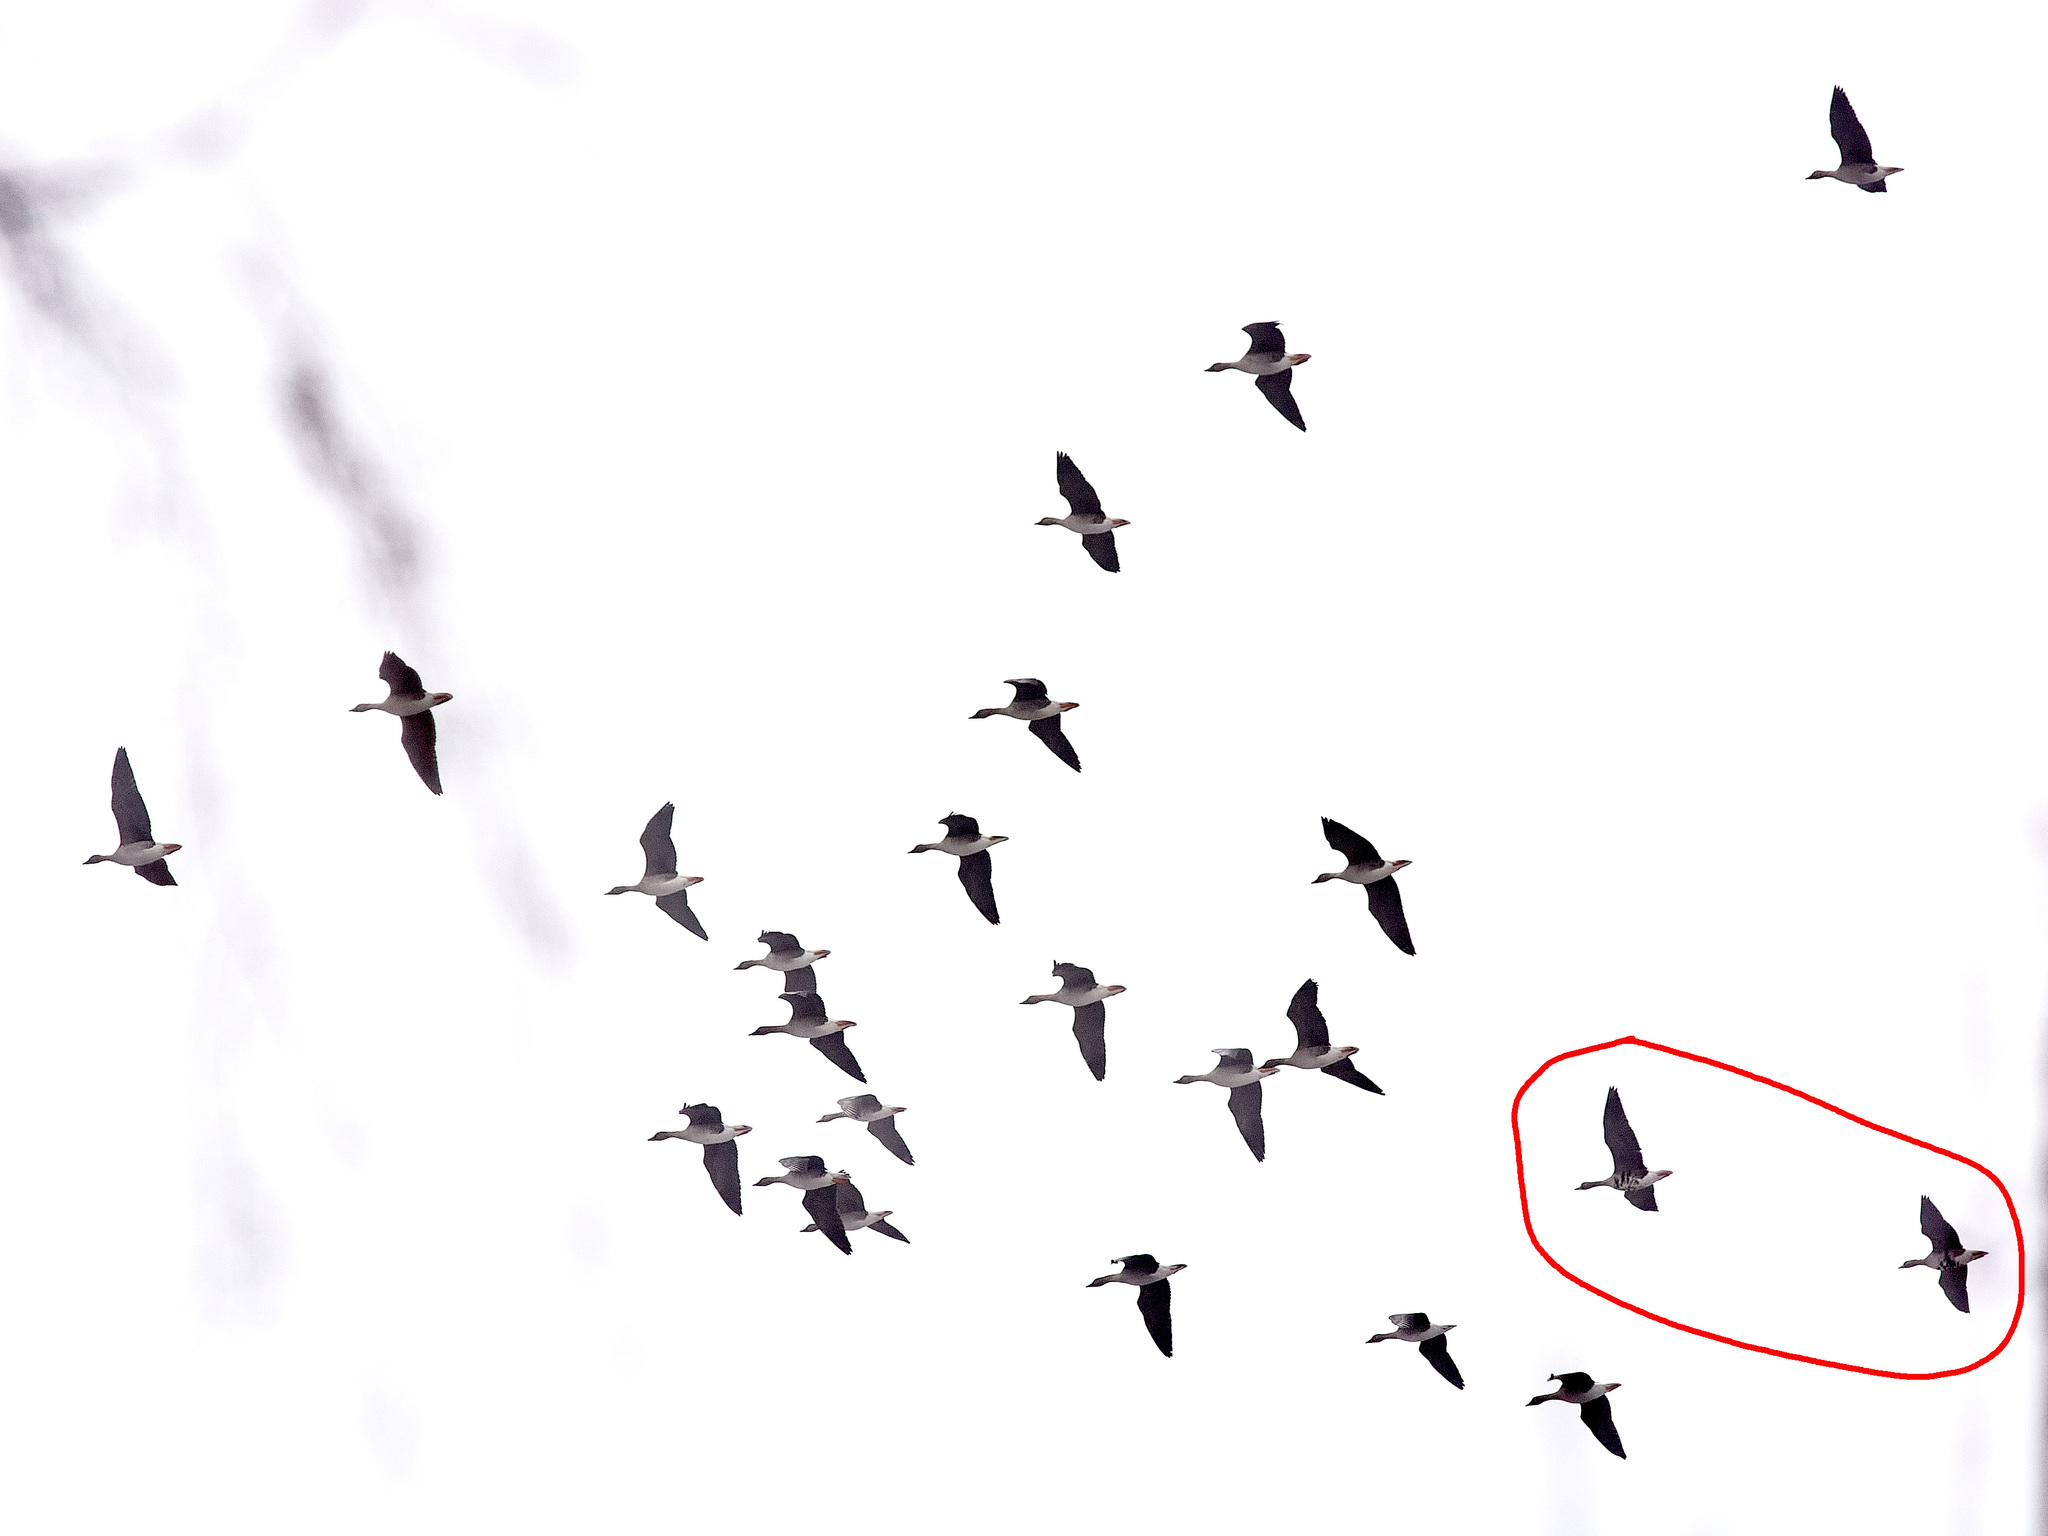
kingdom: Animalia
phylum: Chordata
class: Aves
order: Anseriformes
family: Anatidae
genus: Anser
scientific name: Anser albifrons
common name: Greater white-fronted goose
